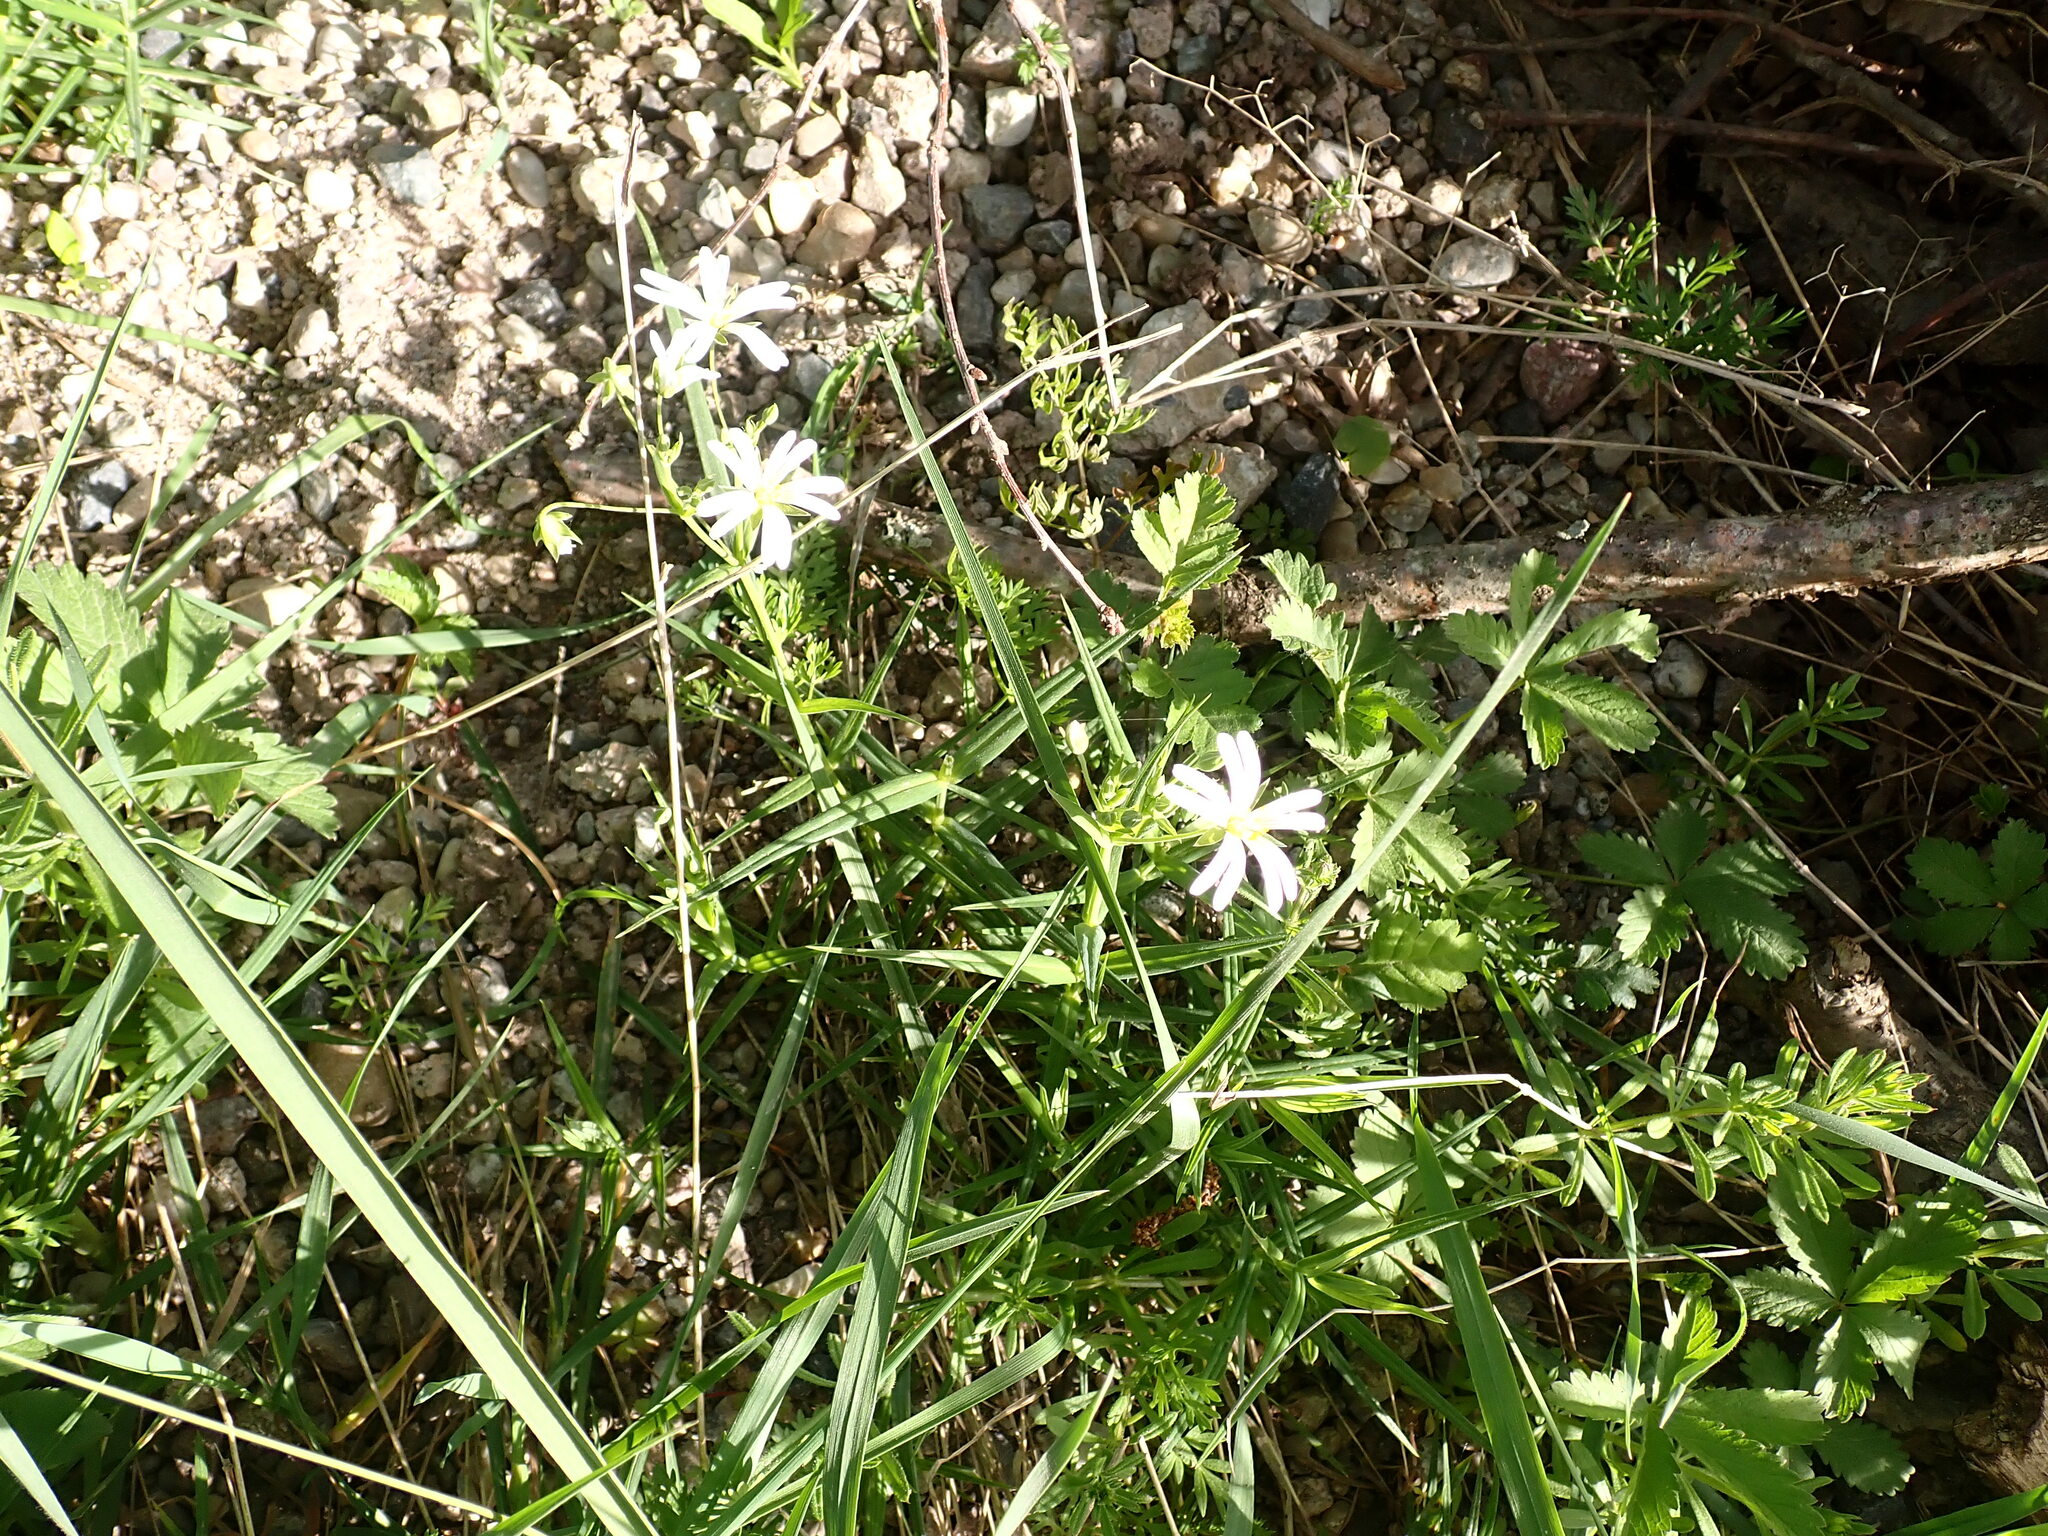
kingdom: Plantae
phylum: Tracheophyta
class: Magnoliopsida
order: Caryophyllales
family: Caryophyllaceae
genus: Rabelera
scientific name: Rabelera holostea
